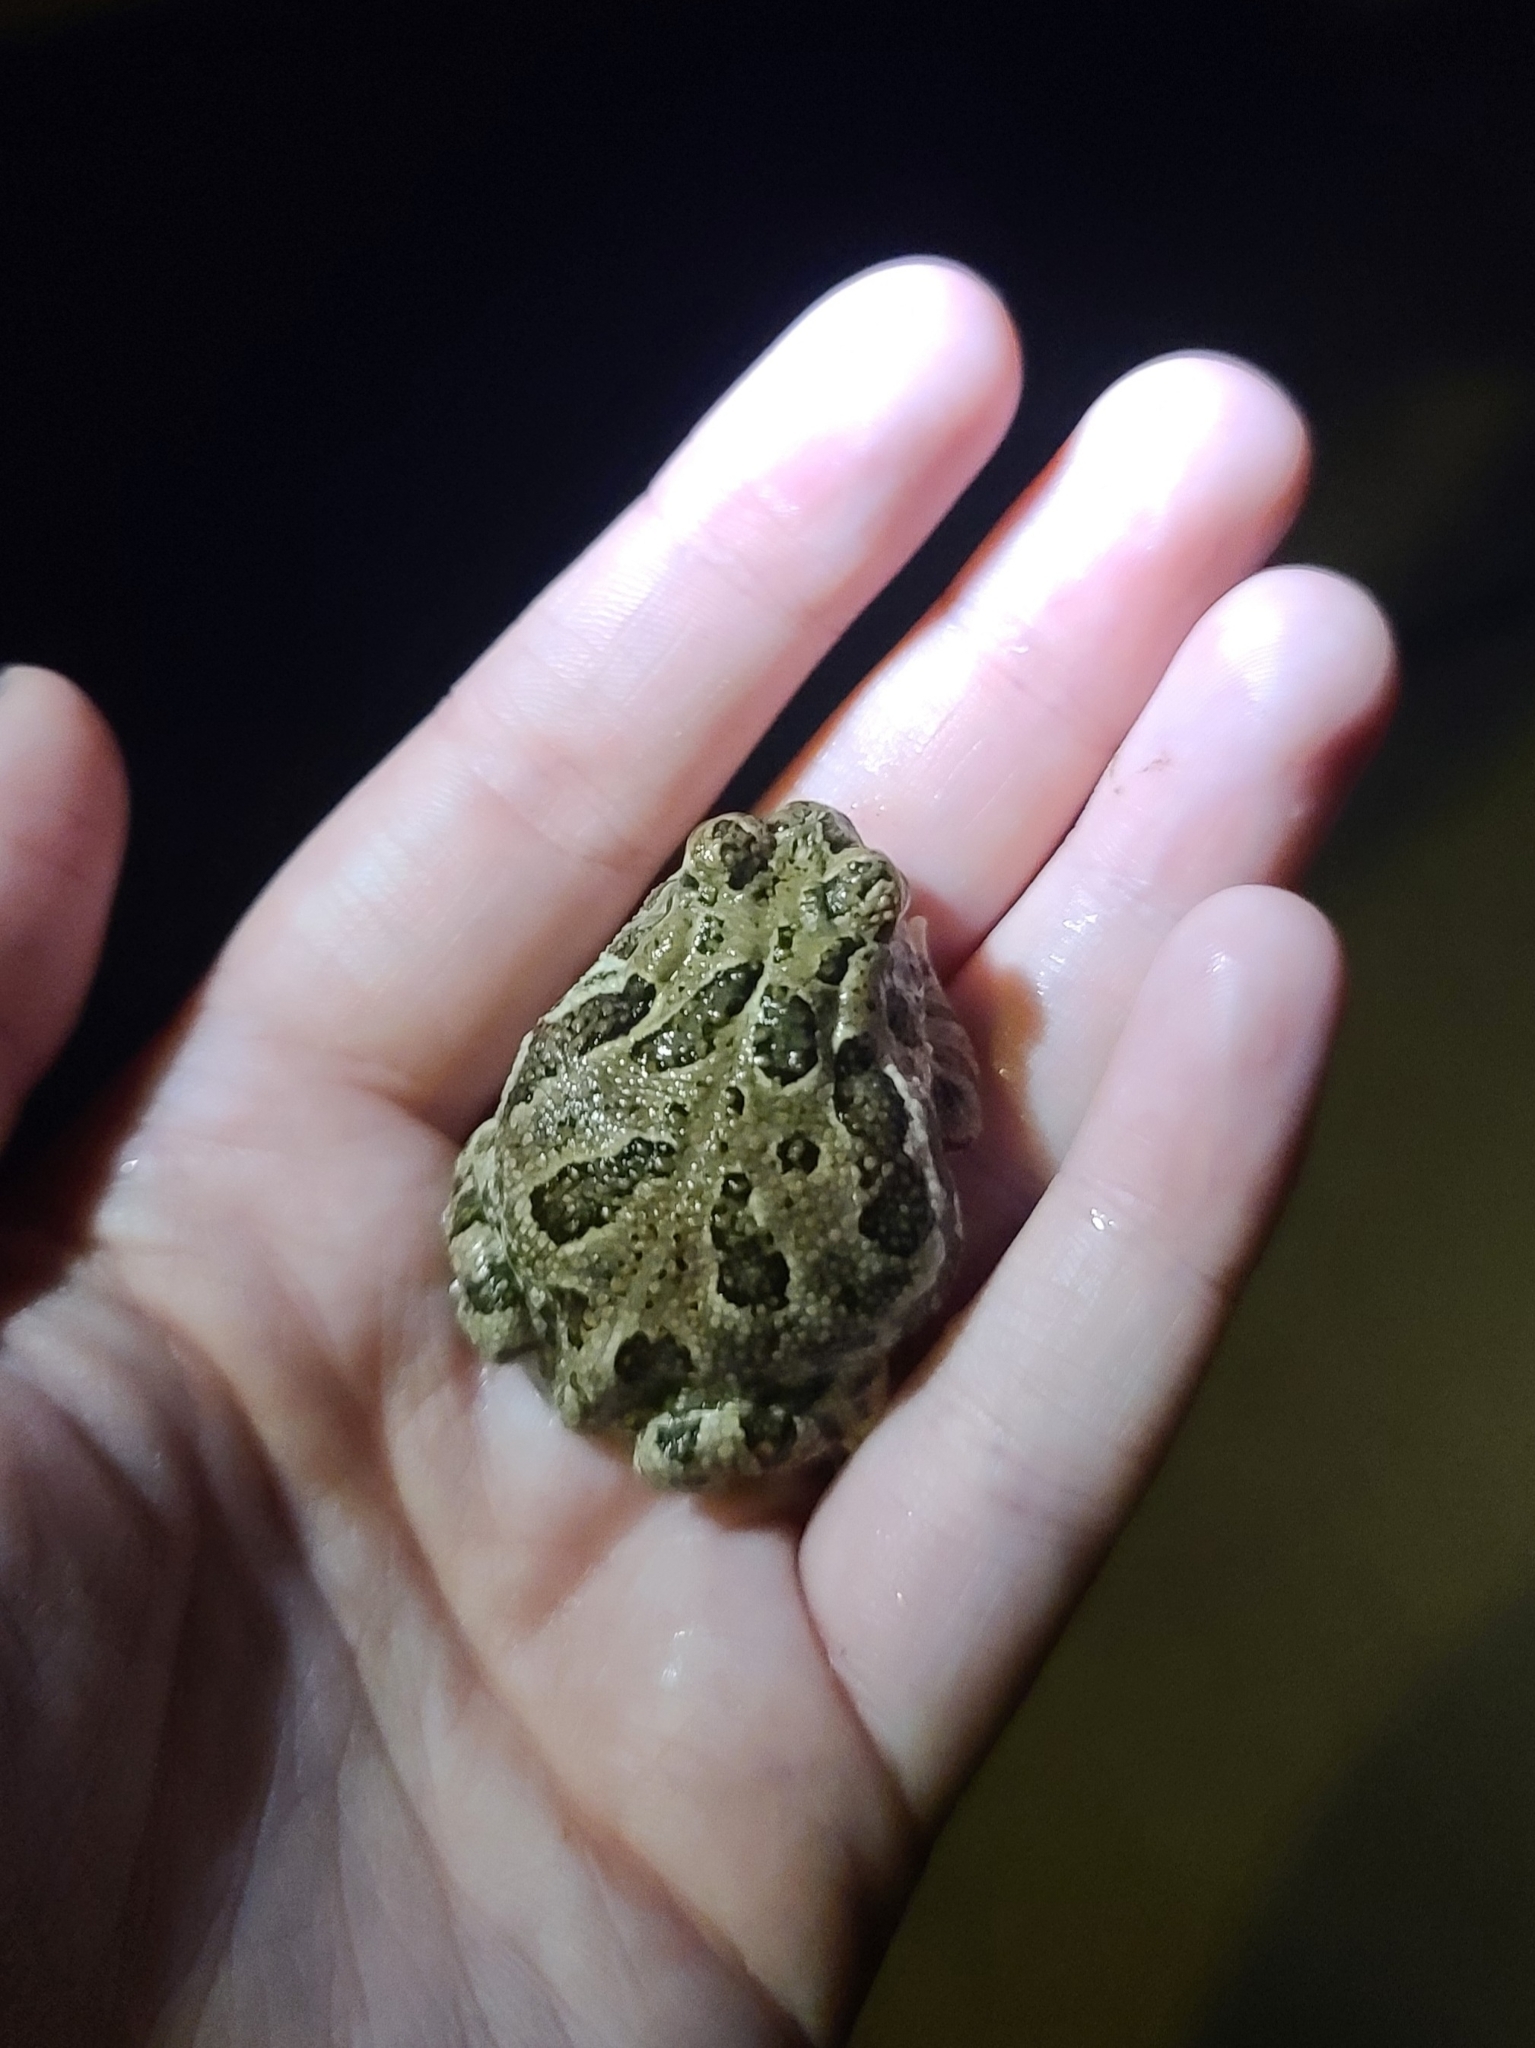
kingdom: Animalia
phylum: Chordata
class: Amphibia
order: Anura
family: Bufonidae
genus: Anaxyrus
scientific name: Anaxyrus cognatus
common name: Great plains toad
